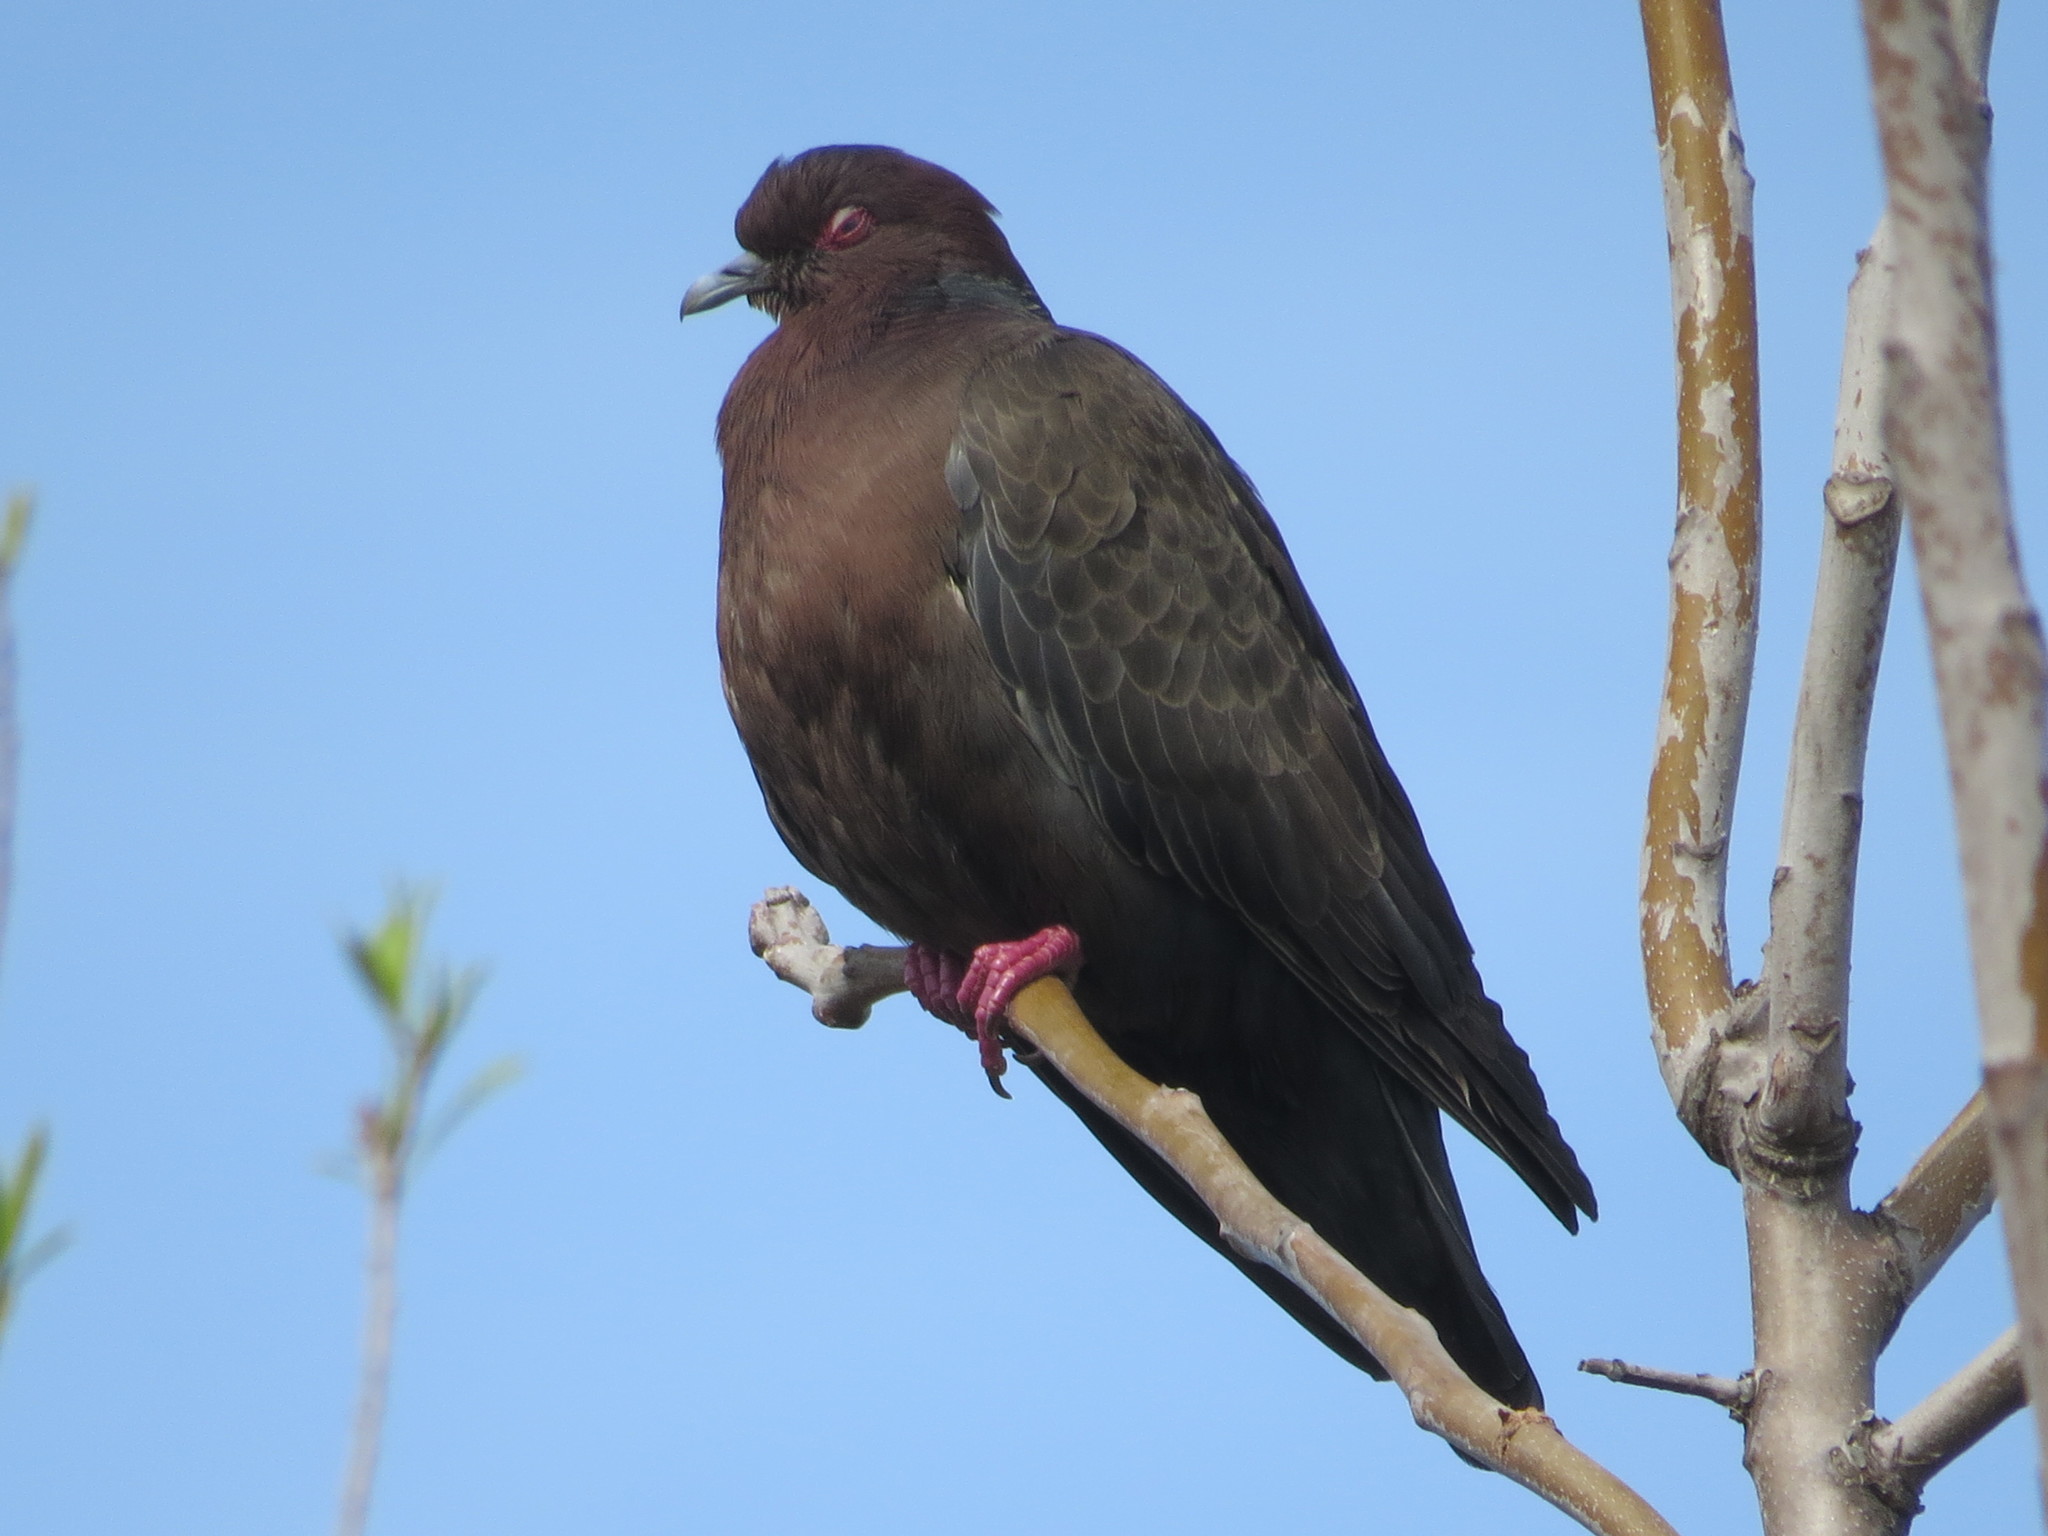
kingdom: Animalia
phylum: Chordata
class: Aves
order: Columbiformes
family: Columbidae
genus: Patagioenas
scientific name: Patagioenas picazuro
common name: Picazuro pigeon
